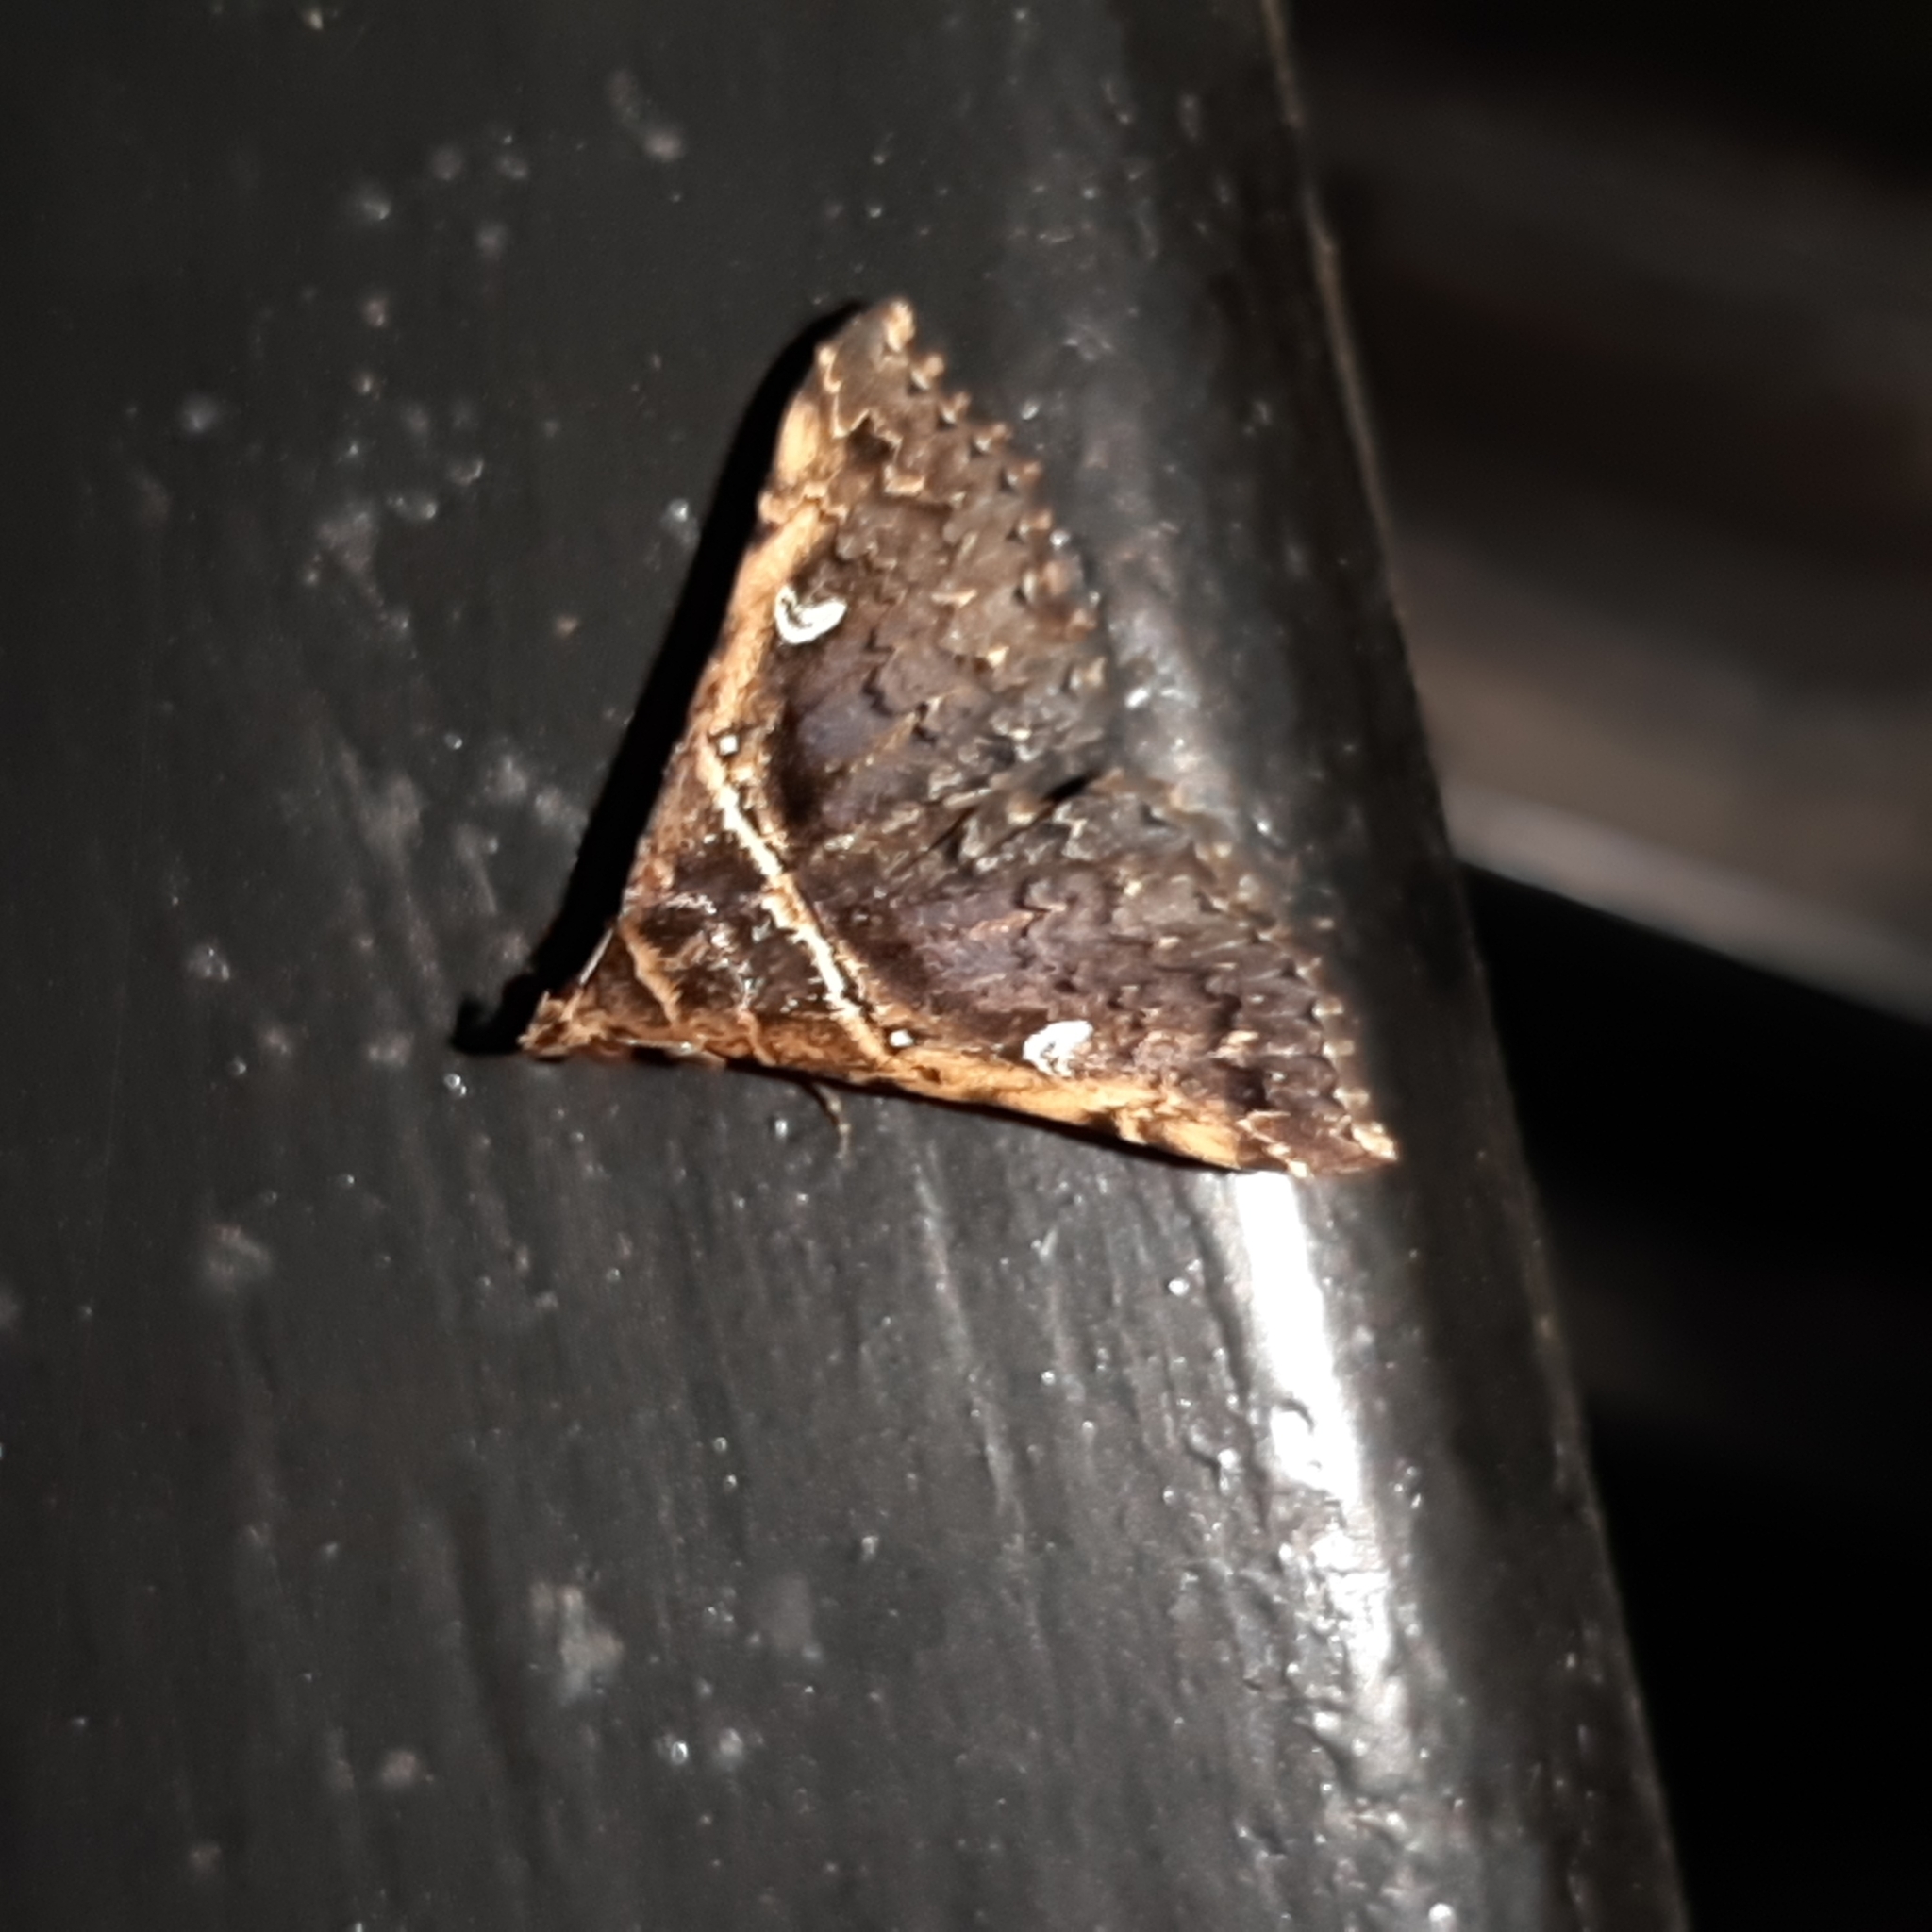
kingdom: Animalia
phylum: Arthropoda
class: Insecta
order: Lepidoptera
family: Erebidae
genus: Tarista
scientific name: Tarista ricalis
